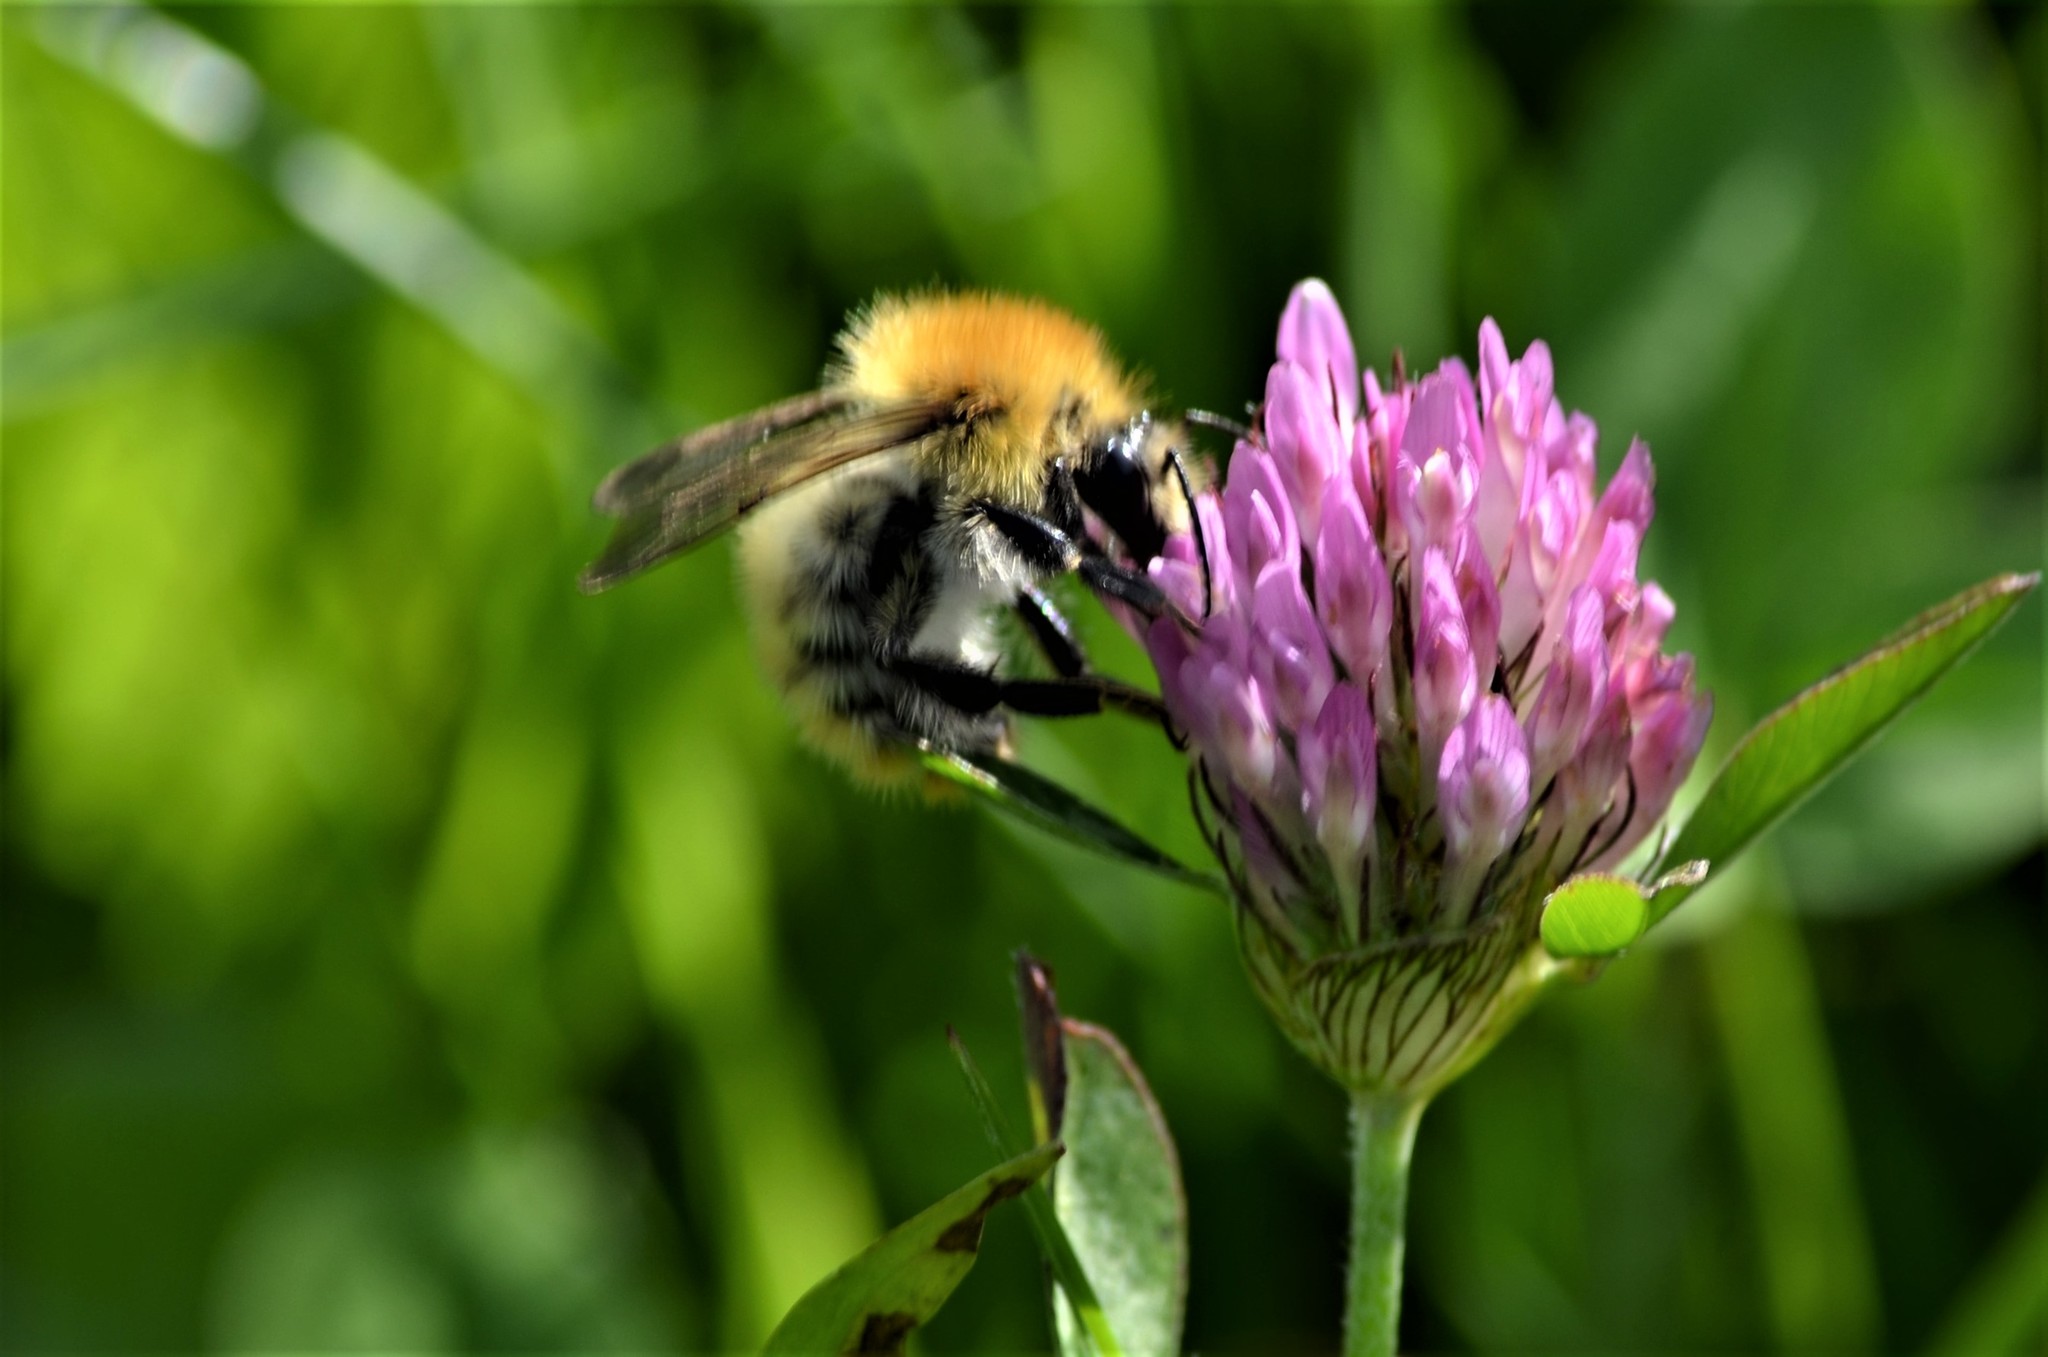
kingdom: Animalia
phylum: Arthropoda
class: Insecta
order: Hymenoptera
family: Apidae
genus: Bombus
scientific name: Bombus pascuorum
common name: Common carder bee
